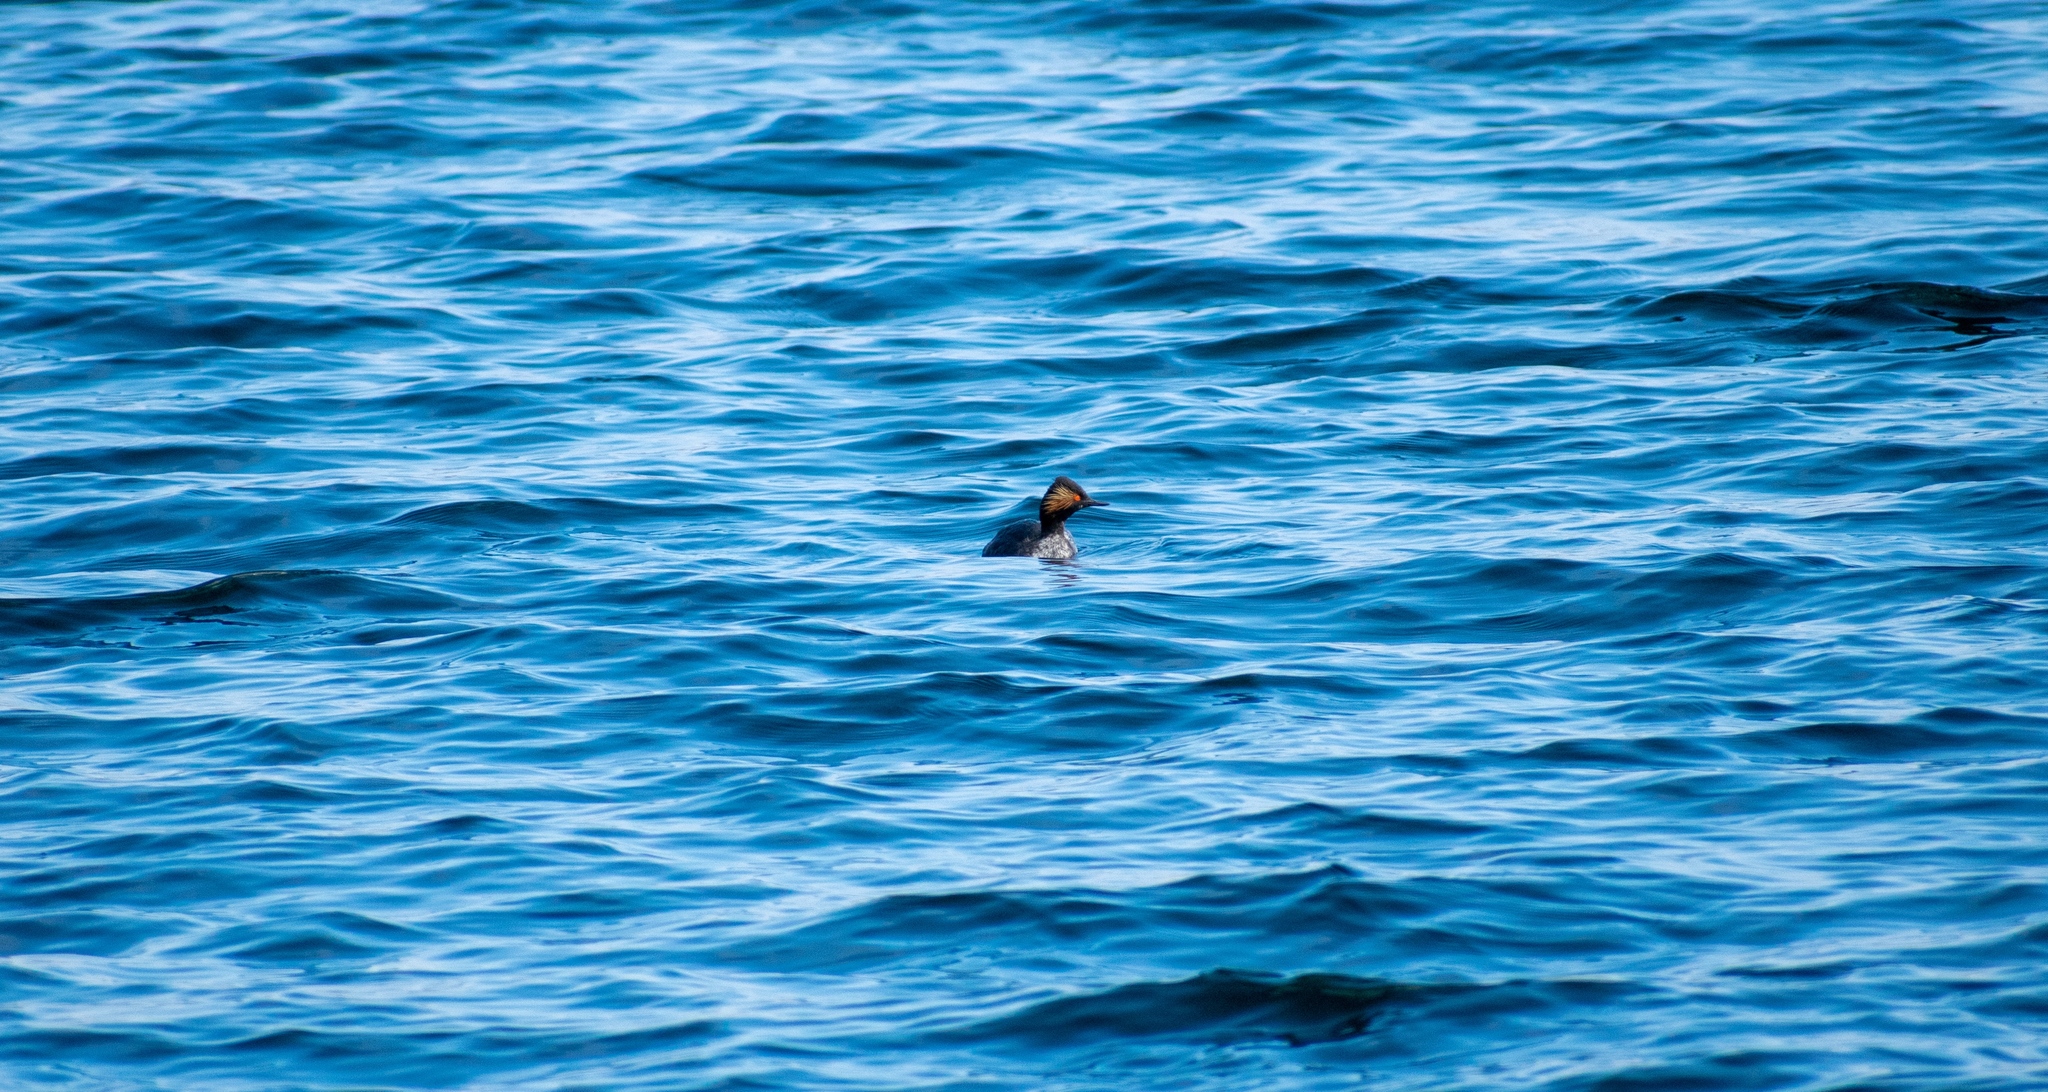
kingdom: Animalia
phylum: Chordata
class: Aves
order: Podicipediformes
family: Podicipedidae
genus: Podiceps
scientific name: Podiceps nigricollis
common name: Black-necked grebe
